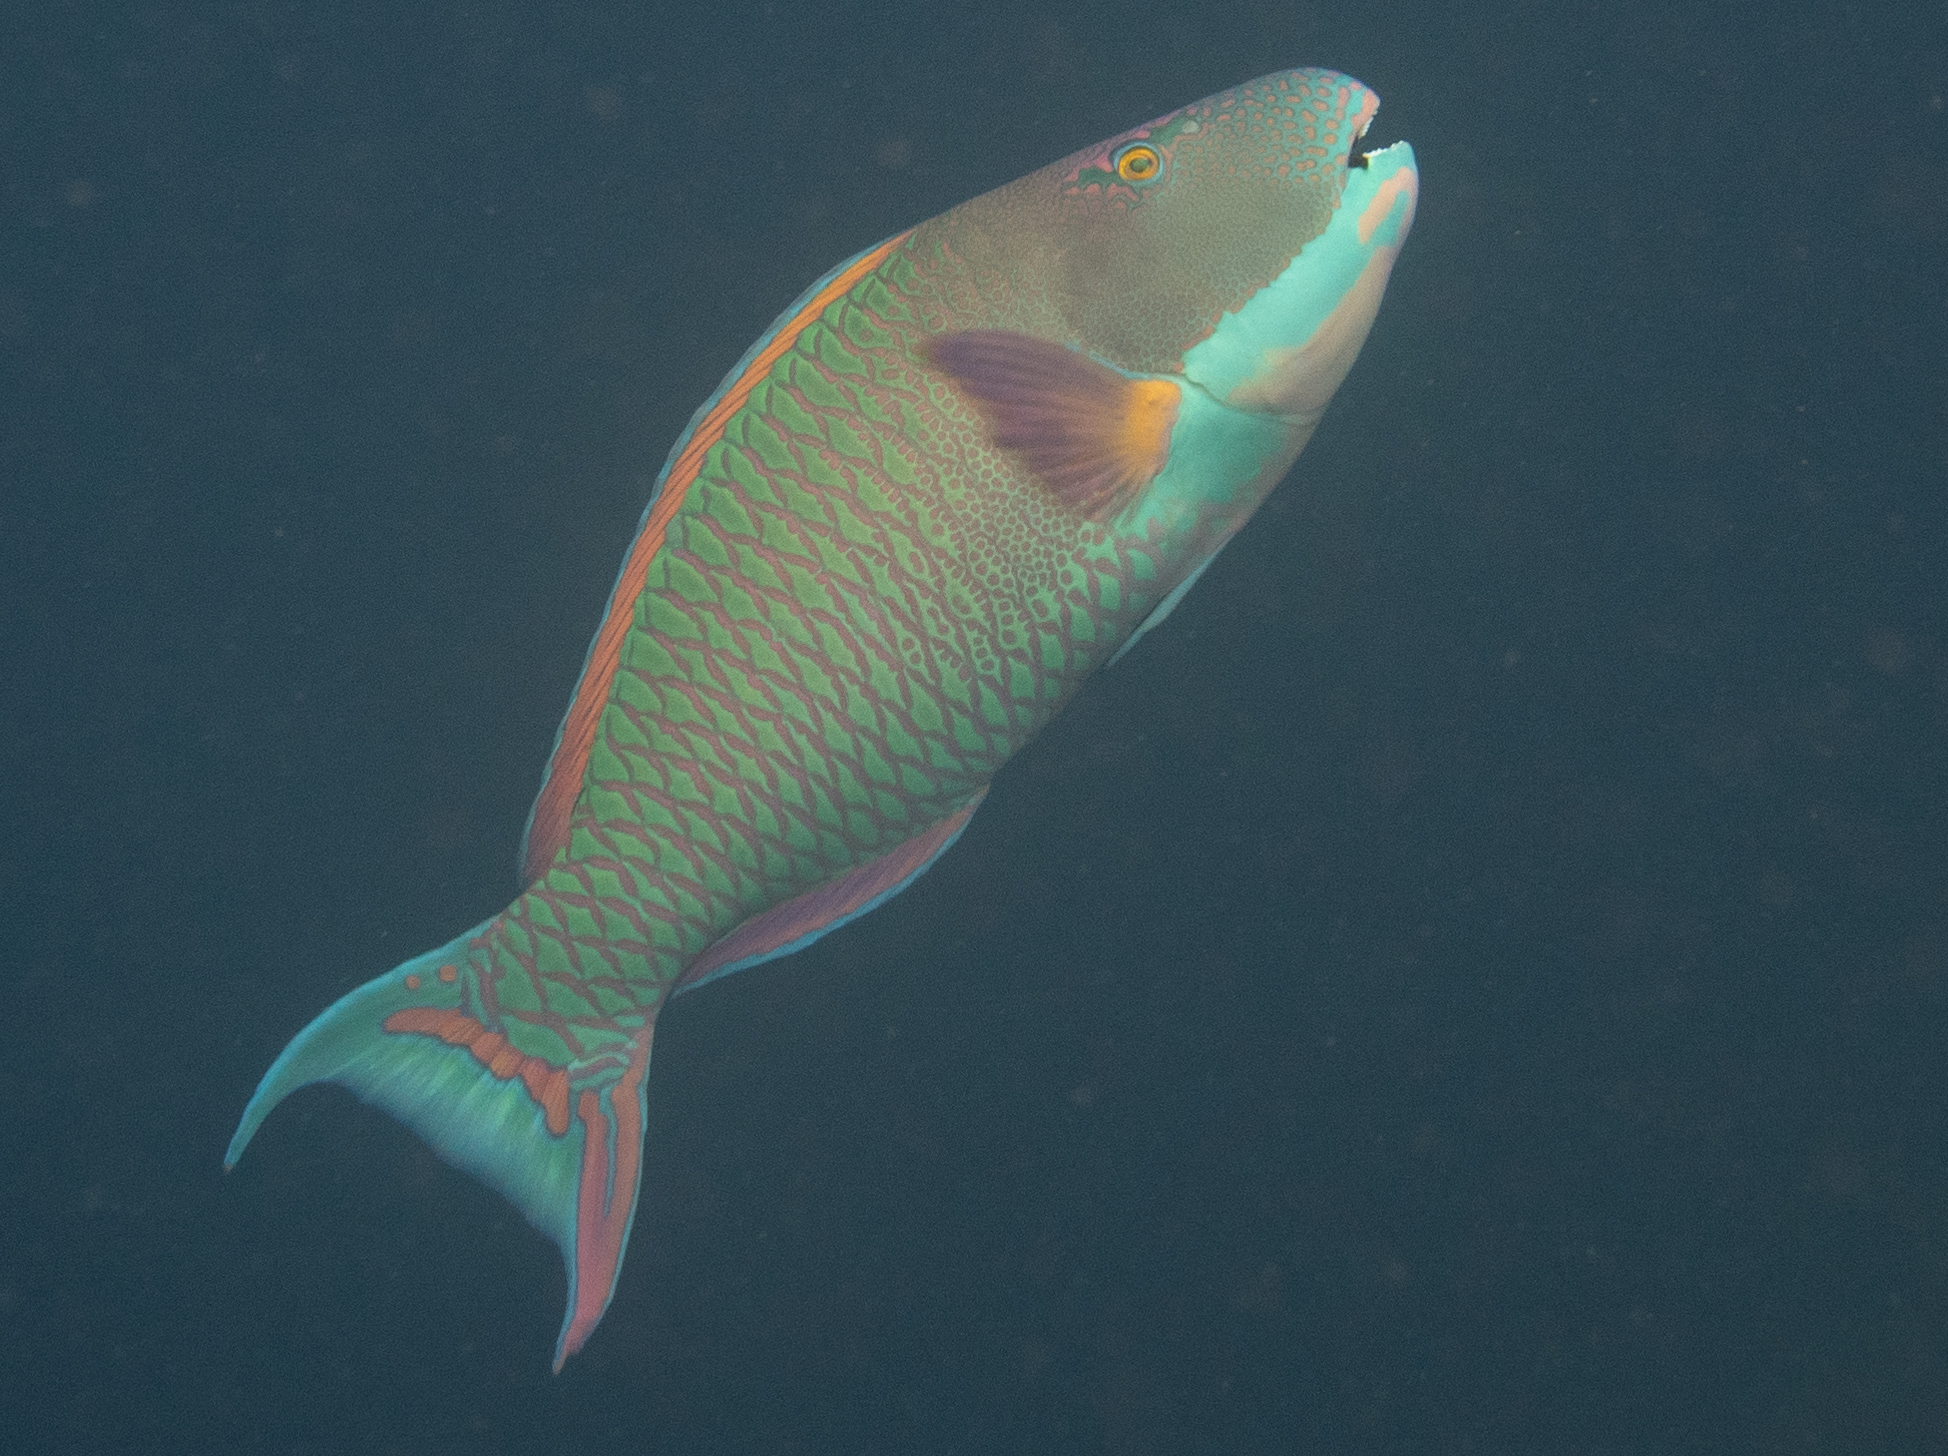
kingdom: Animalia
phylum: Chordata
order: Perciformes
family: Scaridae
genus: Cetoscarus
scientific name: Cetoscarus ocellatus
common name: Bicolor parrotfish
